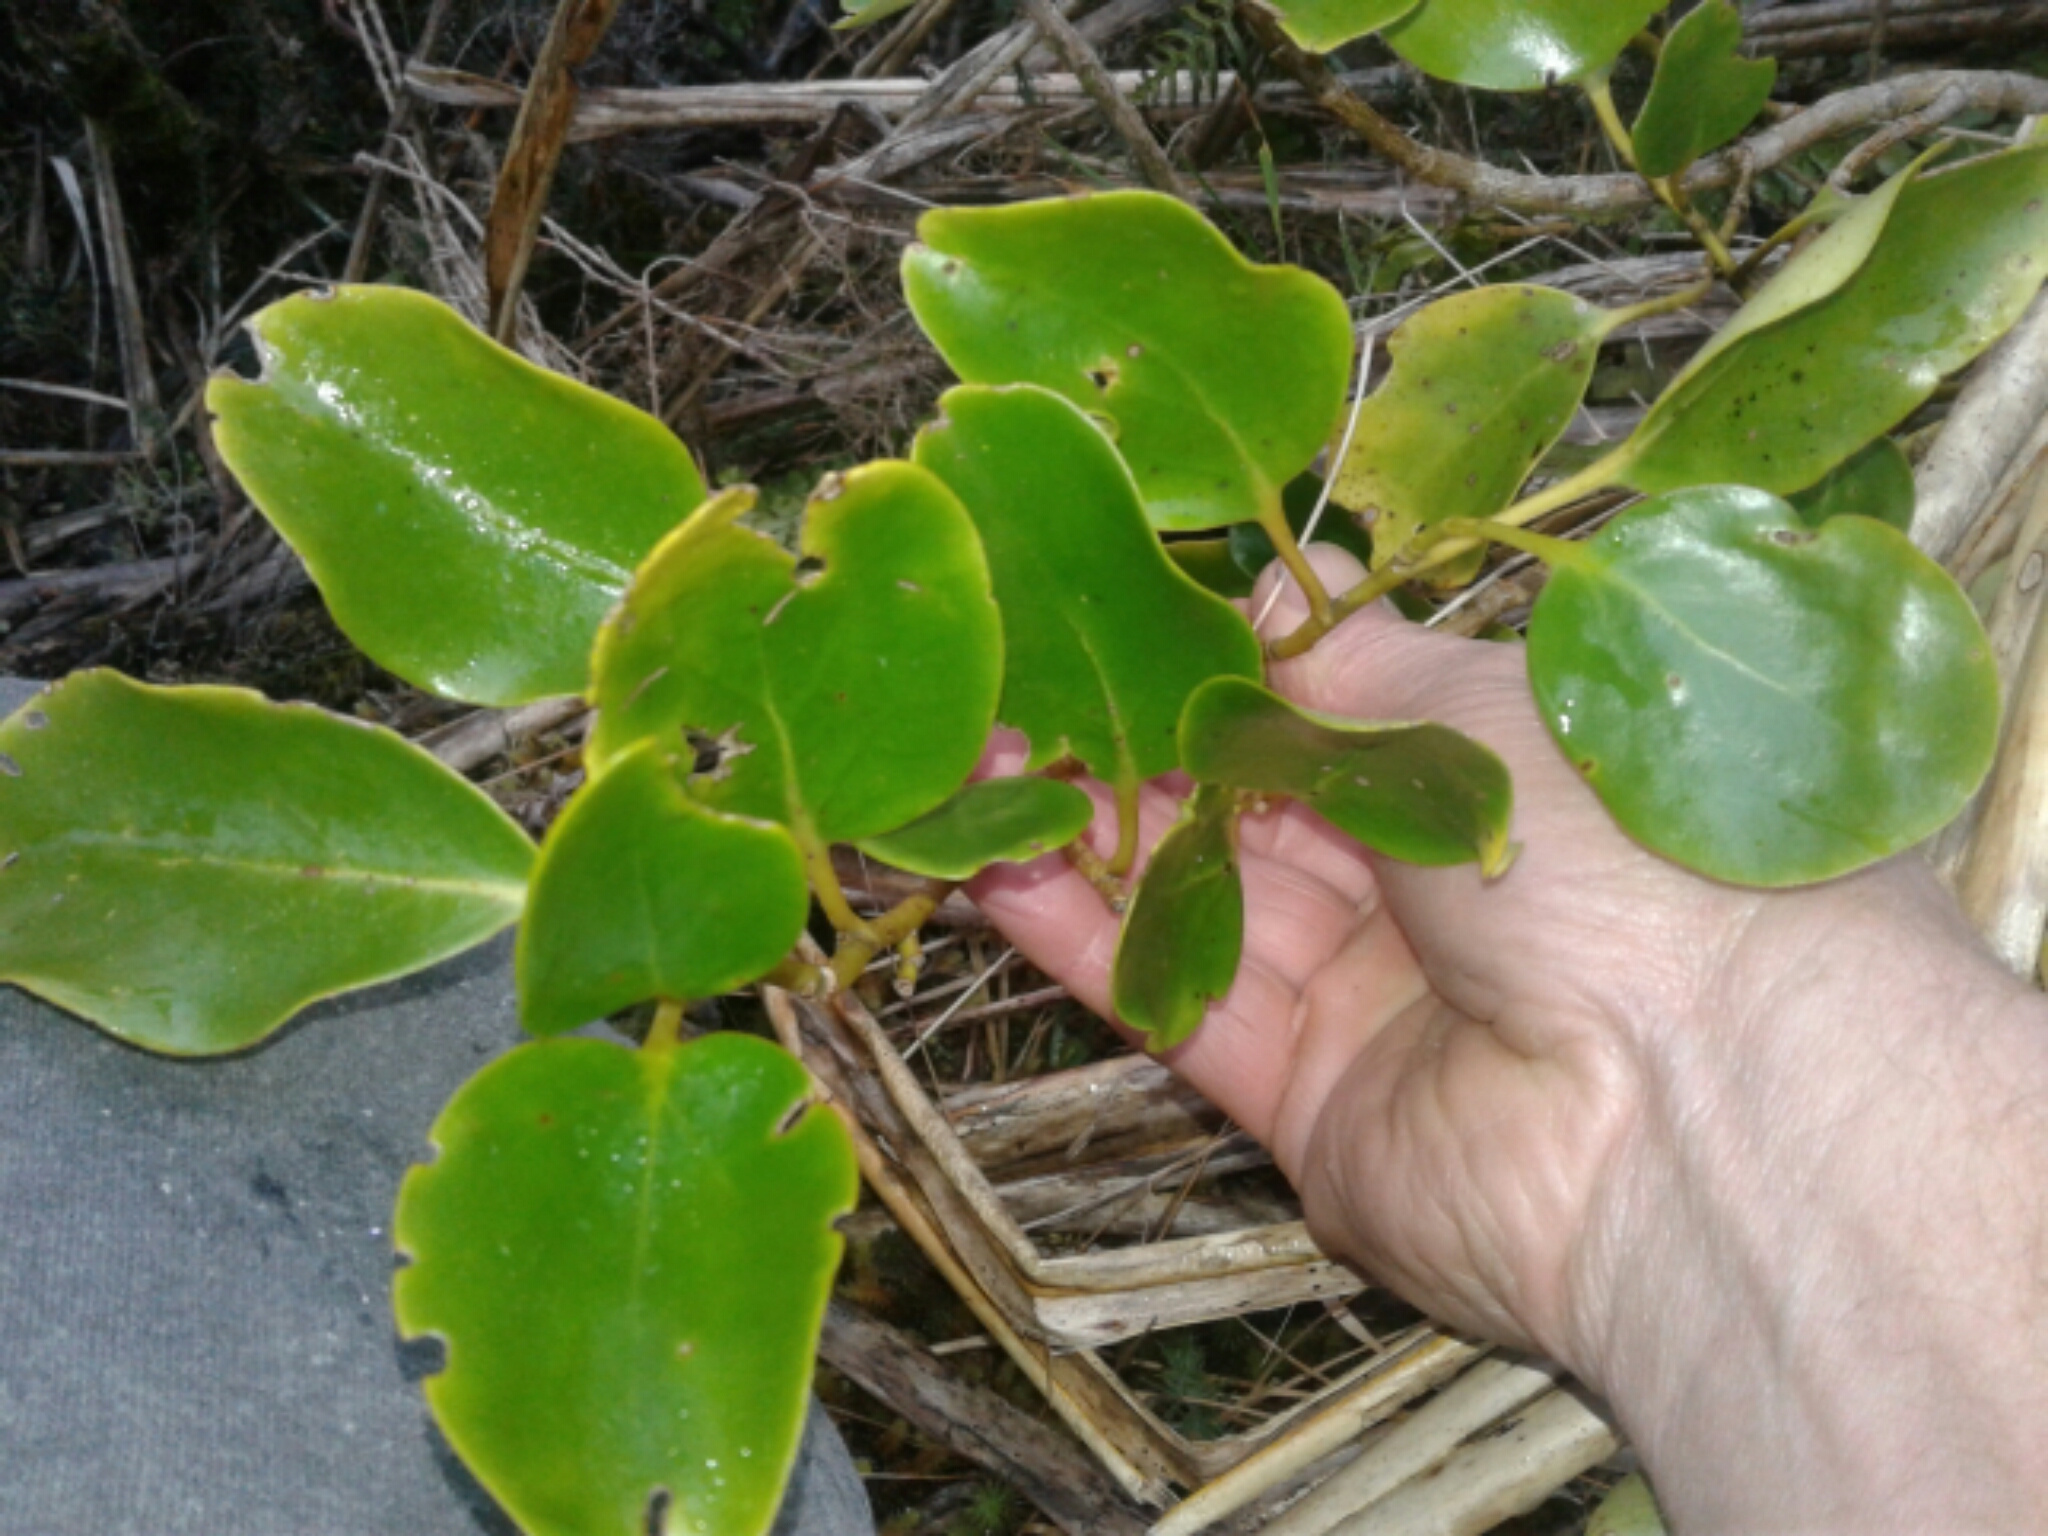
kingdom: Plantae
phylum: Tracheophyta
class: Magnoliopsida
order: Apiales
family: Griseliniaceae
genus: Griselinia
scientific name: Griselinia littoralis
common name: New zealand broadleaf
